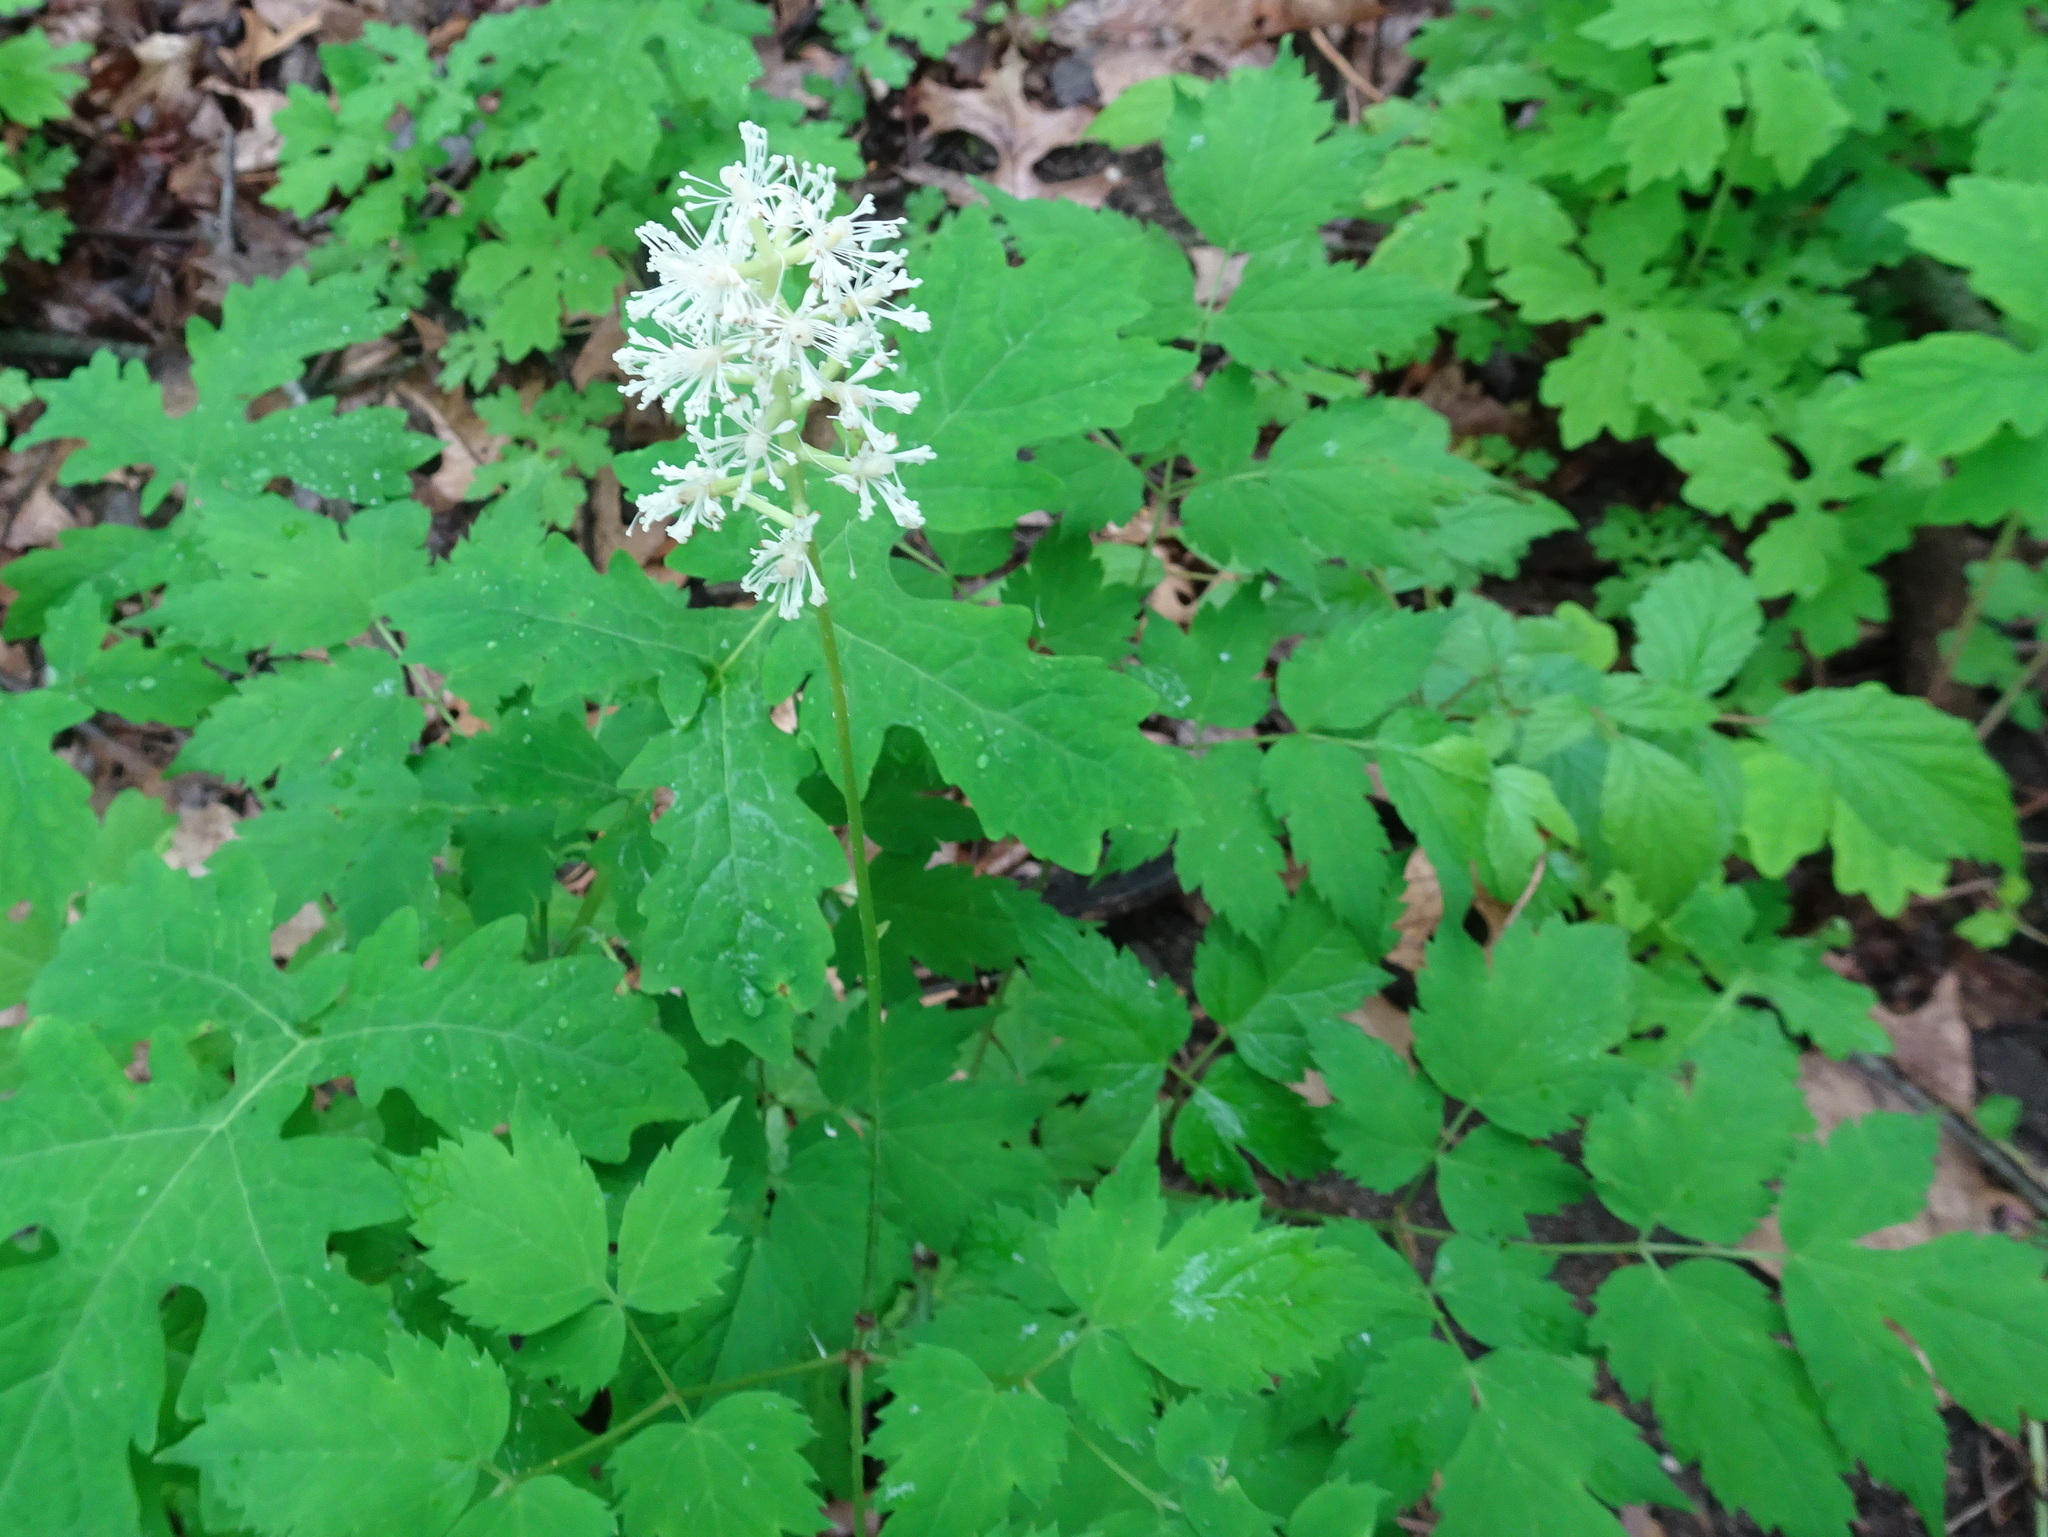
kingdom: Plantae
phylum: Tracheophyta
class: Magnoliopsida
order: Ranunculales
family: Ranunculaceae
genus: Actaea
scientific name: Actaea pachypoda
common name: Doll's-eyes
